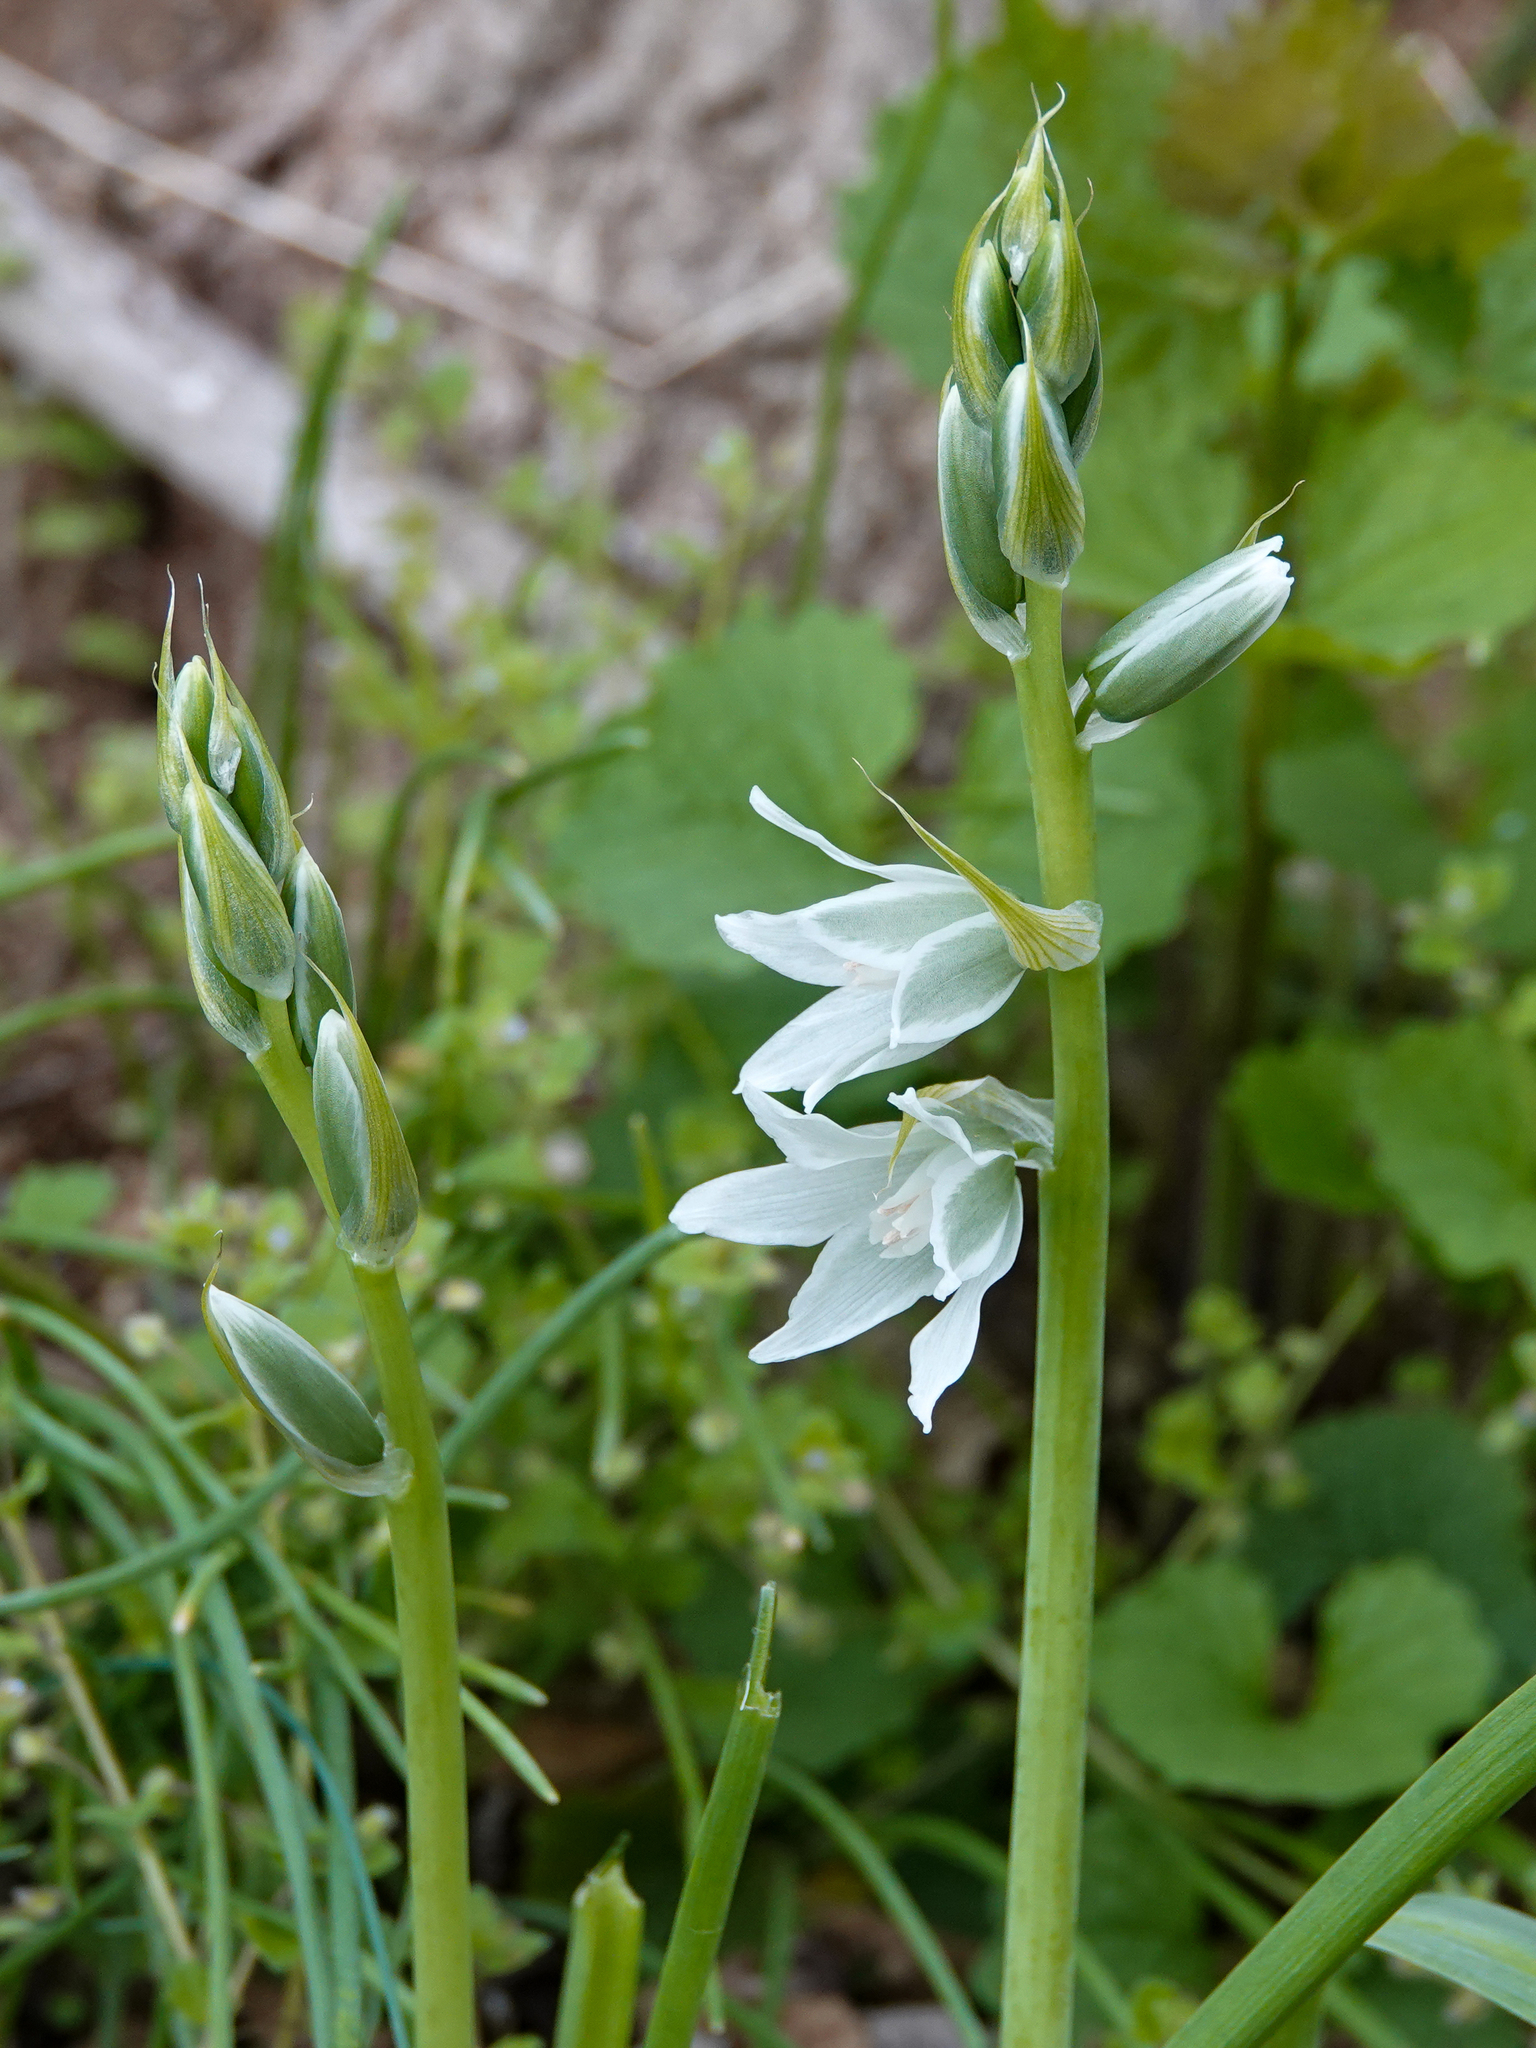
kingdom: Plantae
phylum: Tracheophyta
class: Liliopsida
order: Asparagales
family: Asparagaceae
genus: Ornithogalum
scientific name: Ornithogalum nutans
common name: Drooping star-of-bethlehem
